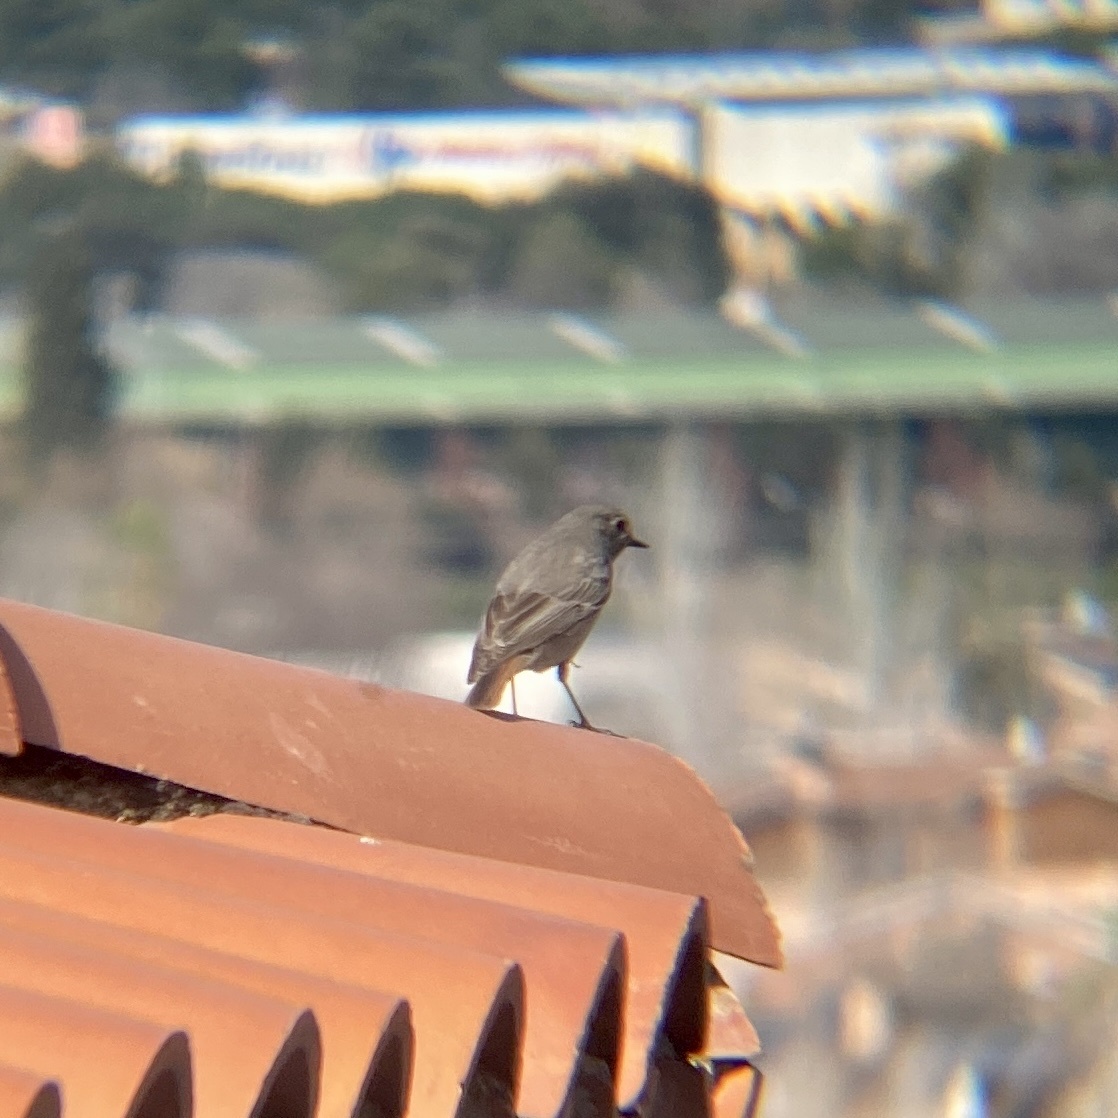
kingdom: Animalia
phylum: Chordata
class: Aves
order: Passeriformes
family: Muscicapidae
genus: Phoenicurus
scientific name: Phoenicurus ochruros
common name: Black redstart
